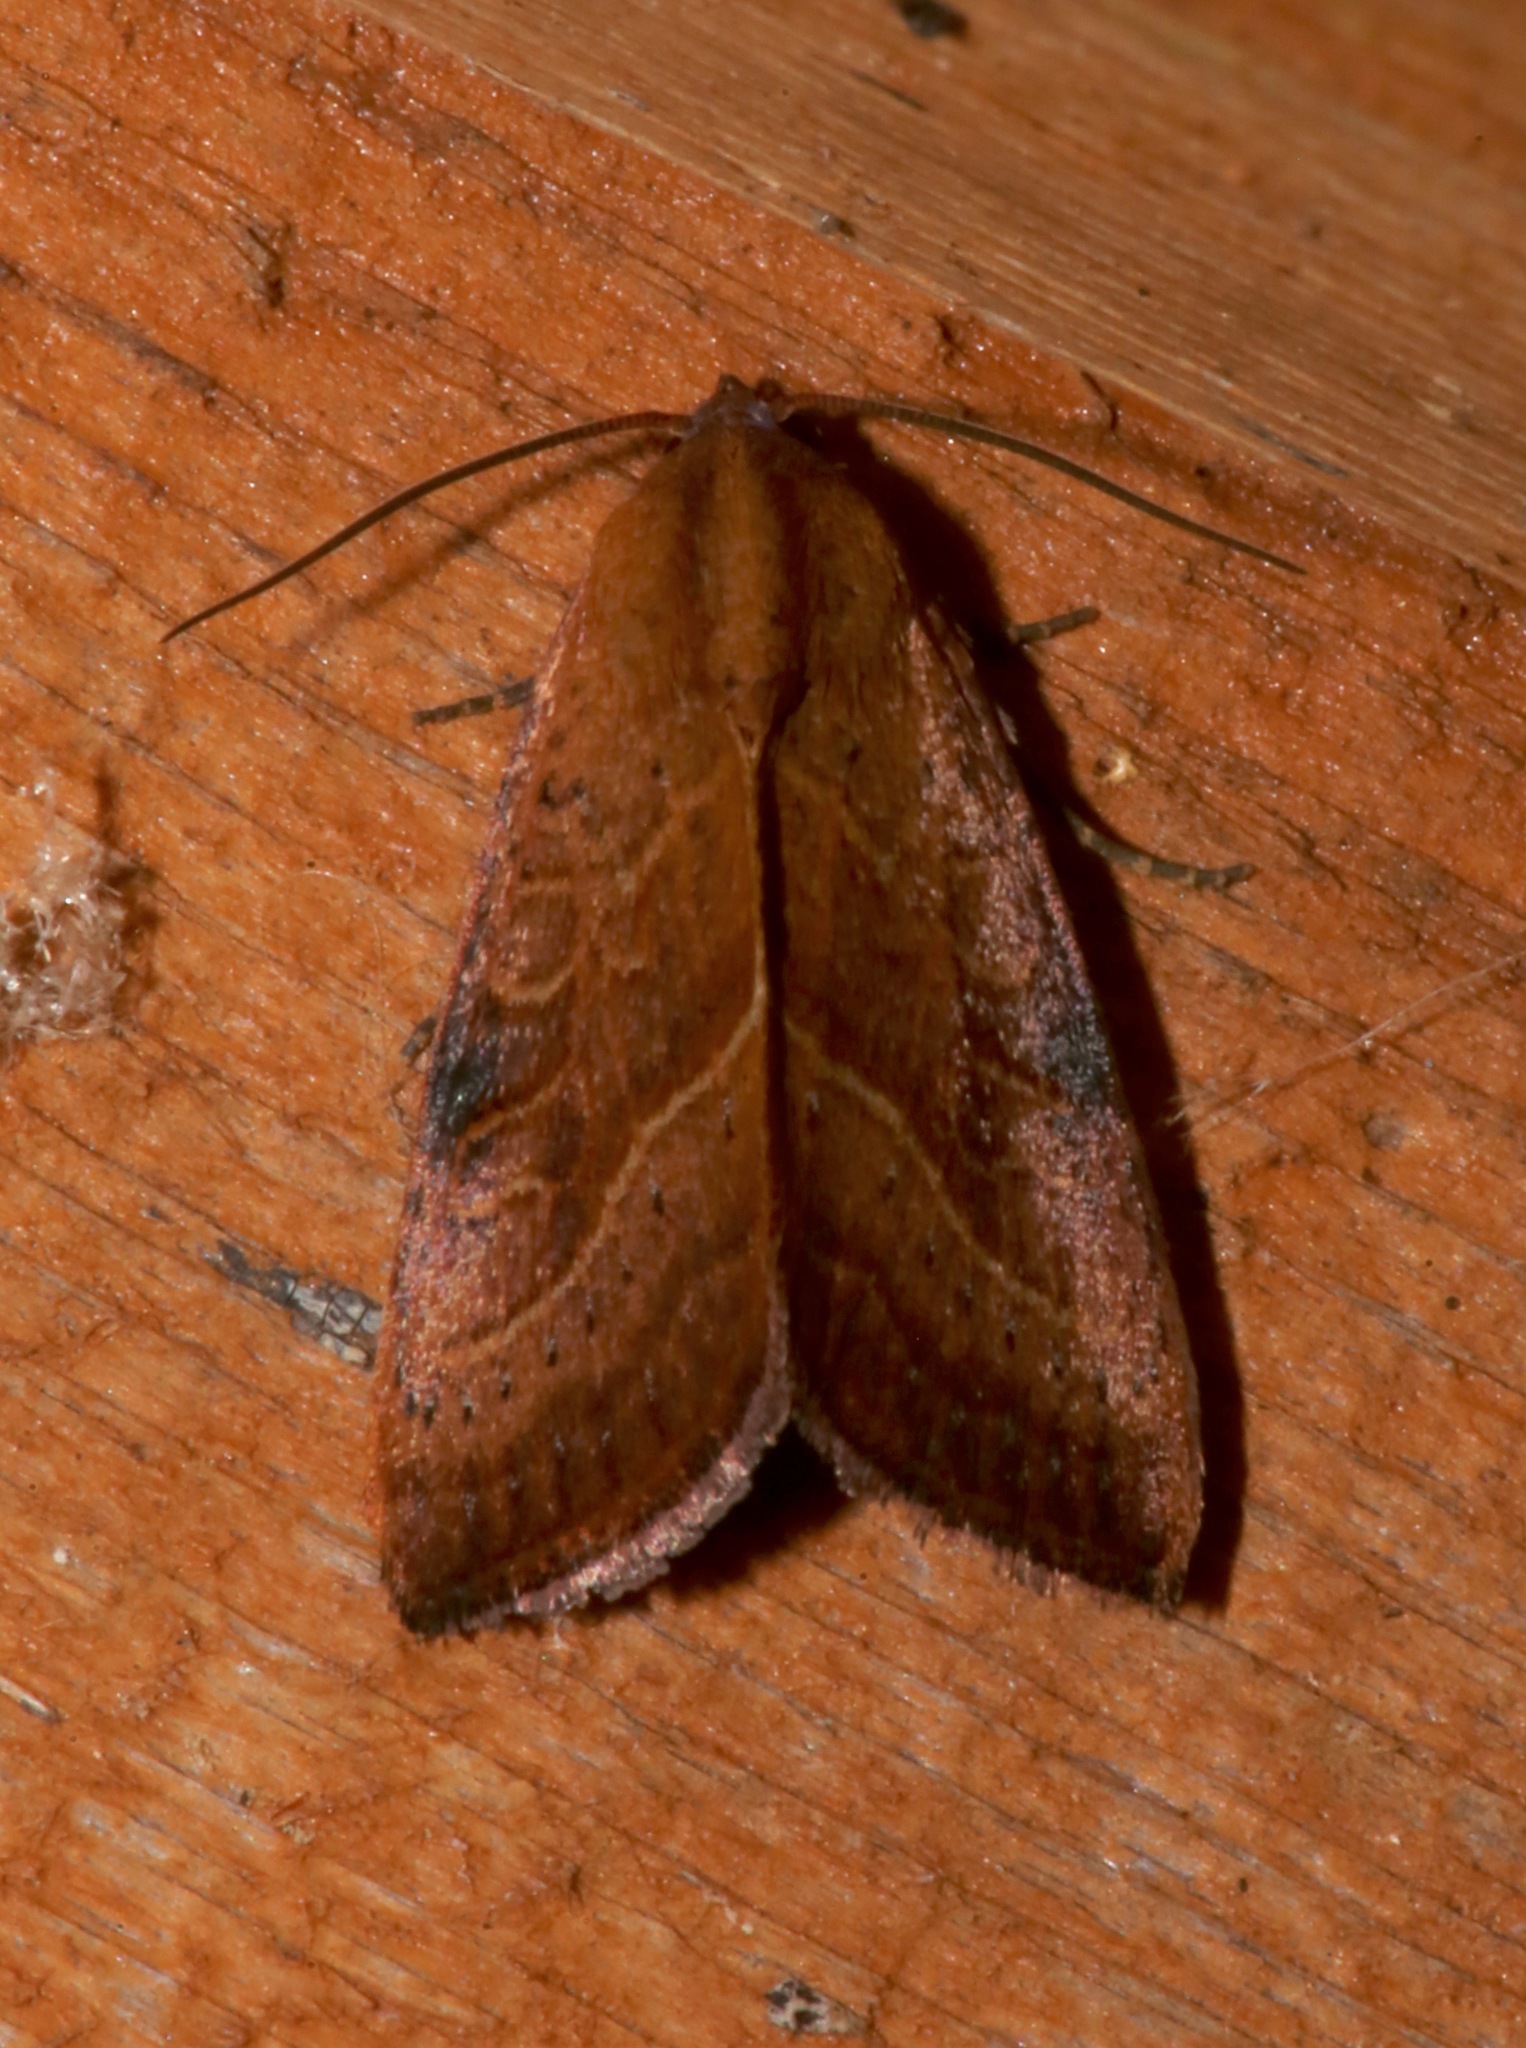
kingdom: Animalia
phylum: Arthropoda
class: Insecta
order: Lepidoptera
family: Noctuidae
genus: Galgula
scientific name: Galgula partita
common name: Wedgeling
